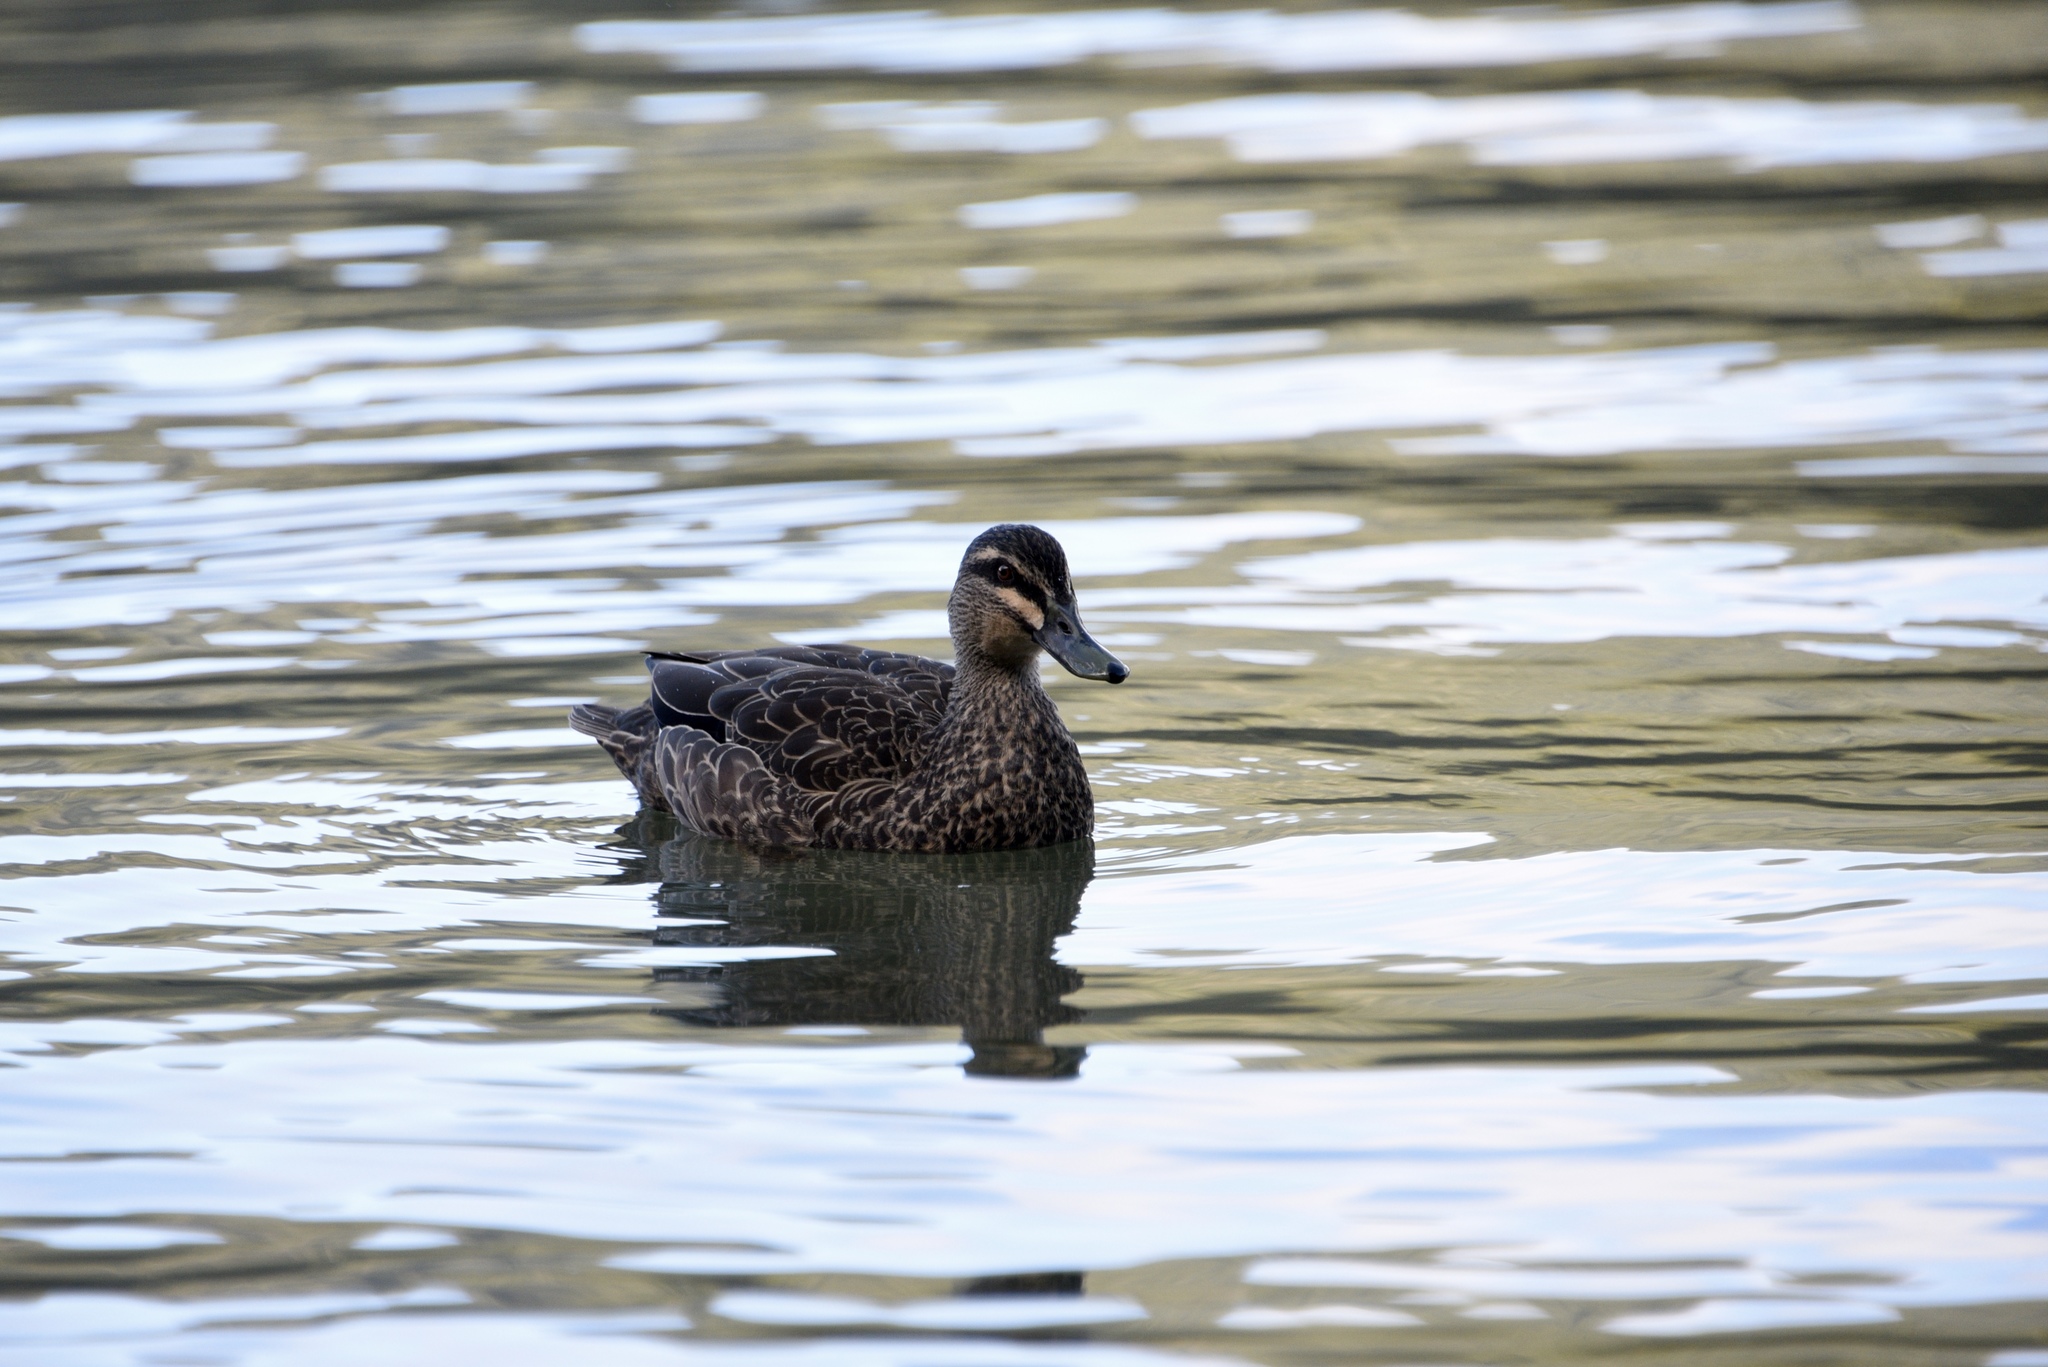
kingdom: Animalia
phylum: Chordata
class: Aves
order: Anseriformes
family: Anatidae
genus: Anas
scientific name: Anas
